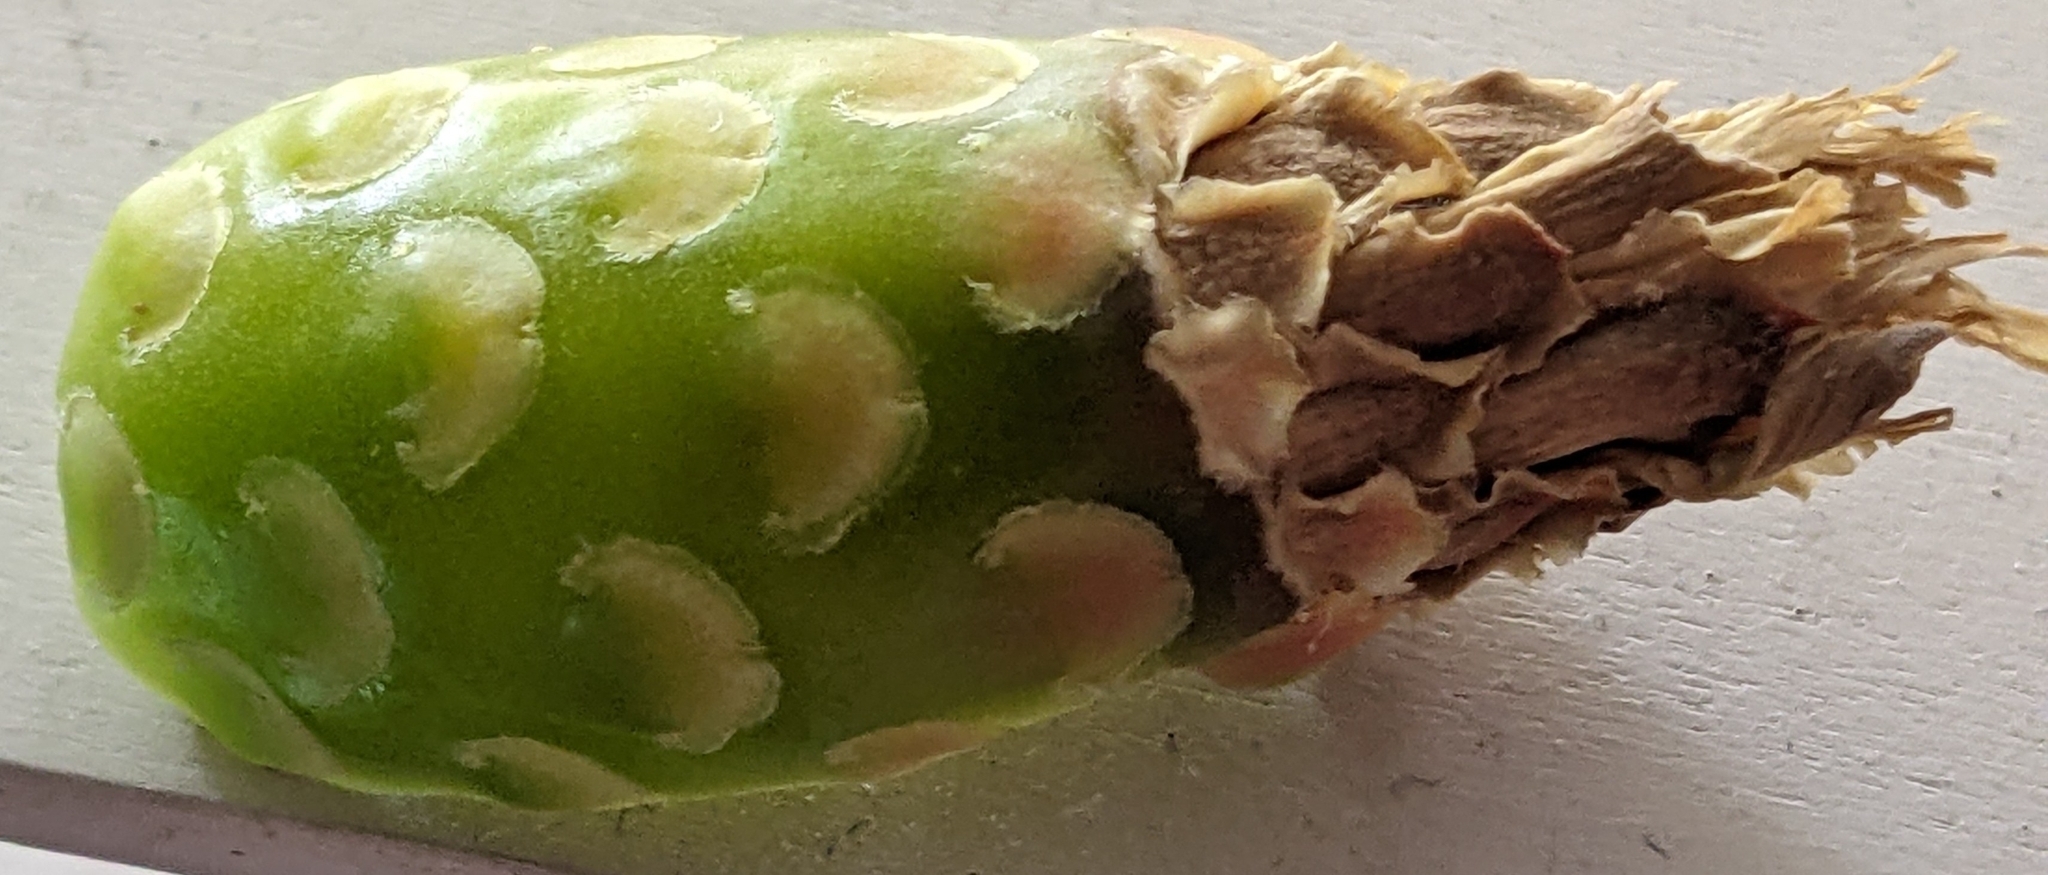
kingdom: Plantae
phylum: Tracheophyta
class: Magnoliopsida
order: Caryophyllales
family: Cactaceae
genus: Ferocactus
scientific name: Ferocactus cylindraceus
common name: California barrel cactus
